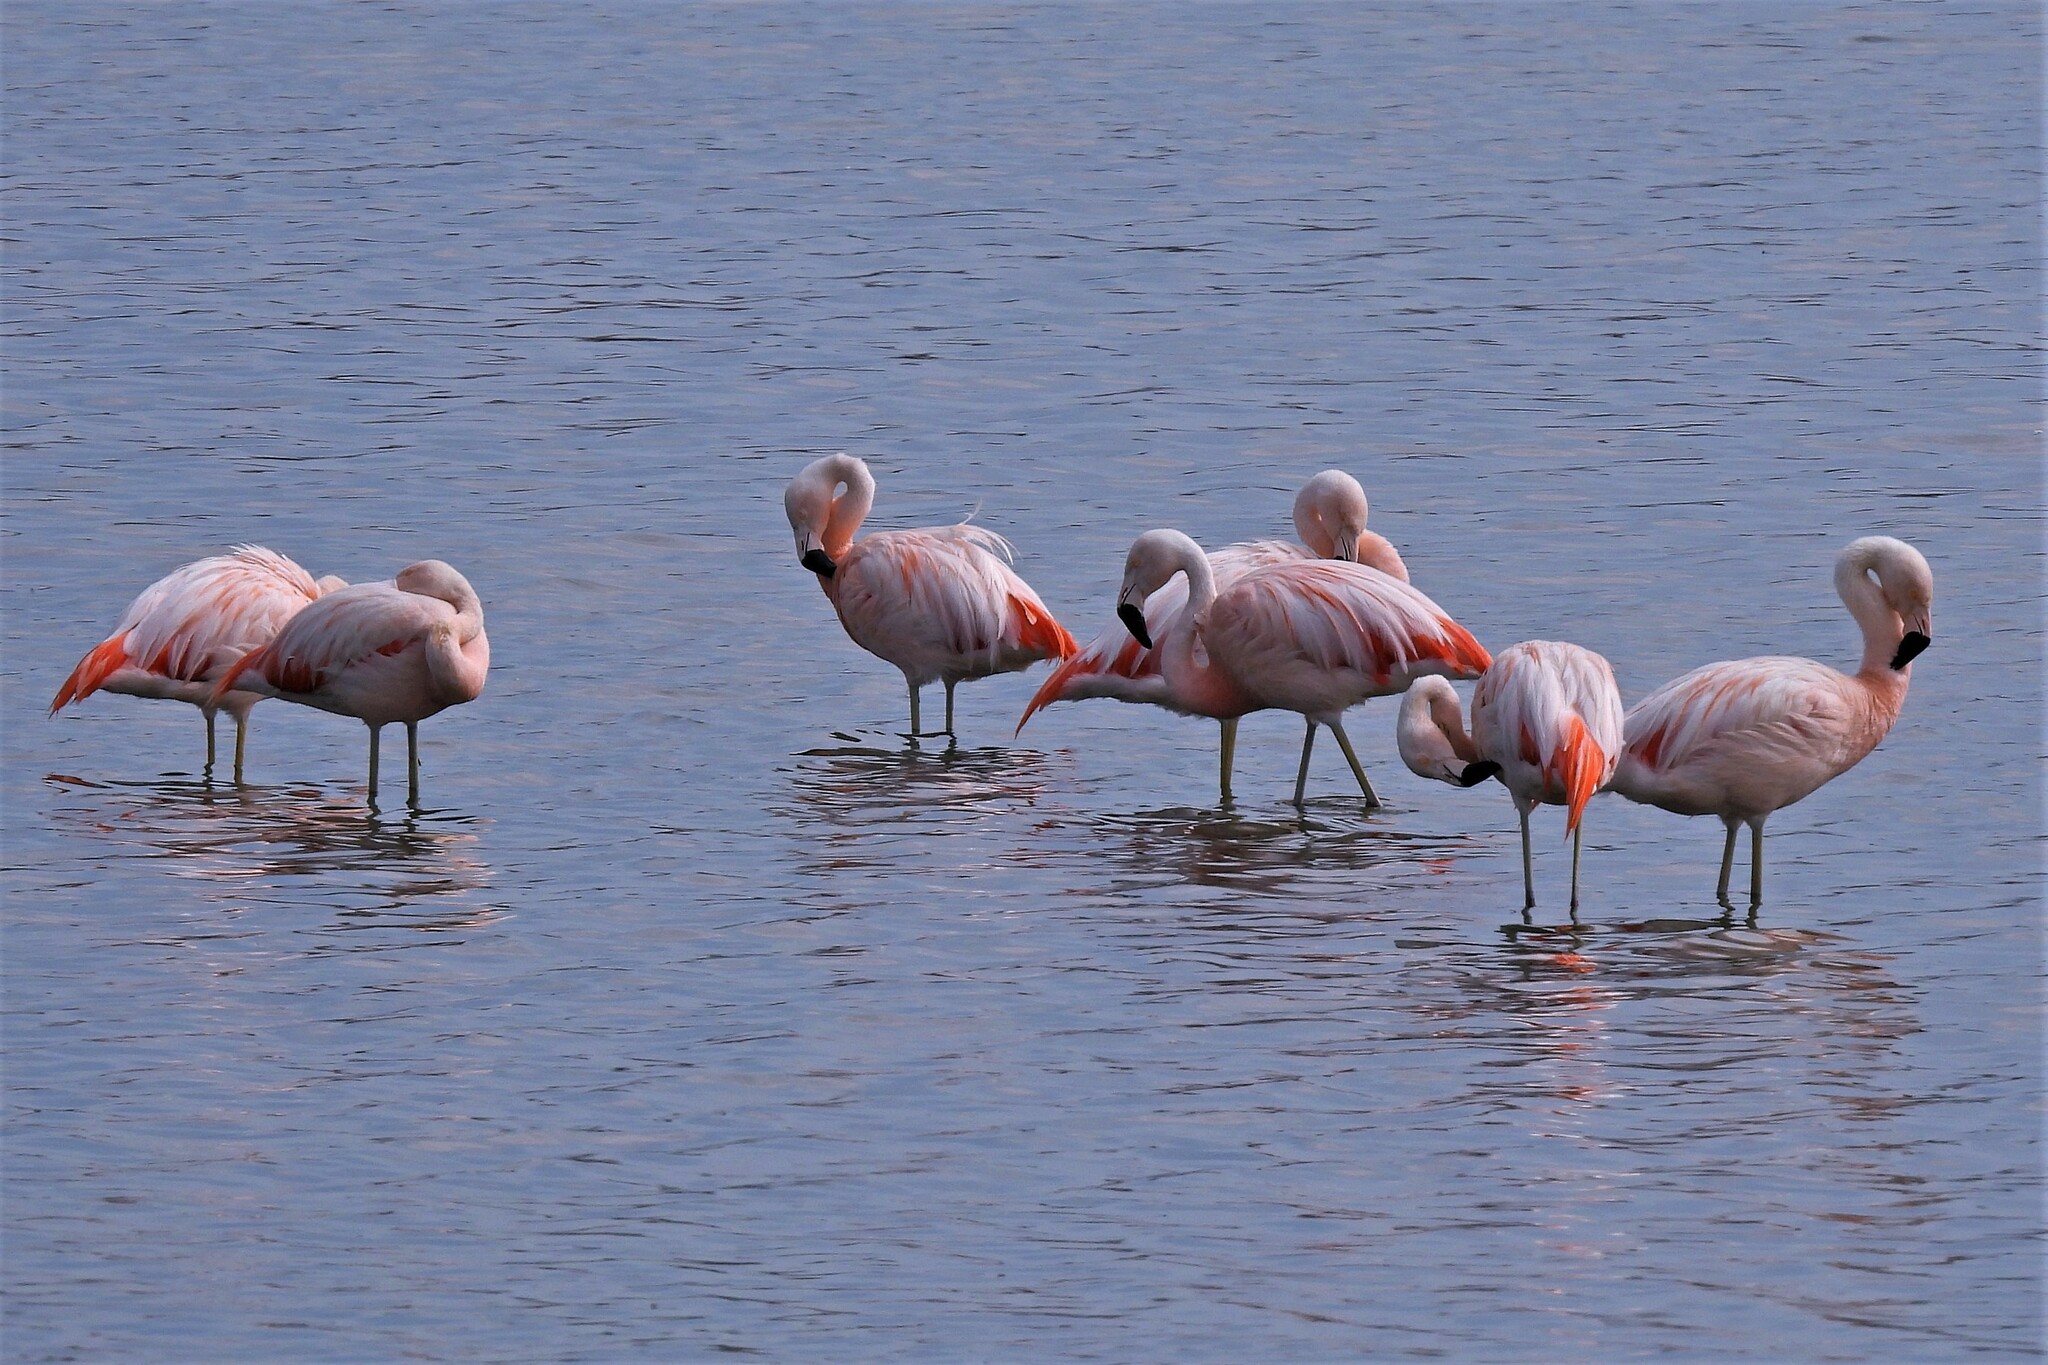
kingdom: Animalia
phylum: Chordata
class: Aves
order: Phoenicopteriformes
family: Phoenicopteridae
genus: Phoenicopterus
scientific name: Phoenicopterus chilensis
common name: Chilean flamingo
